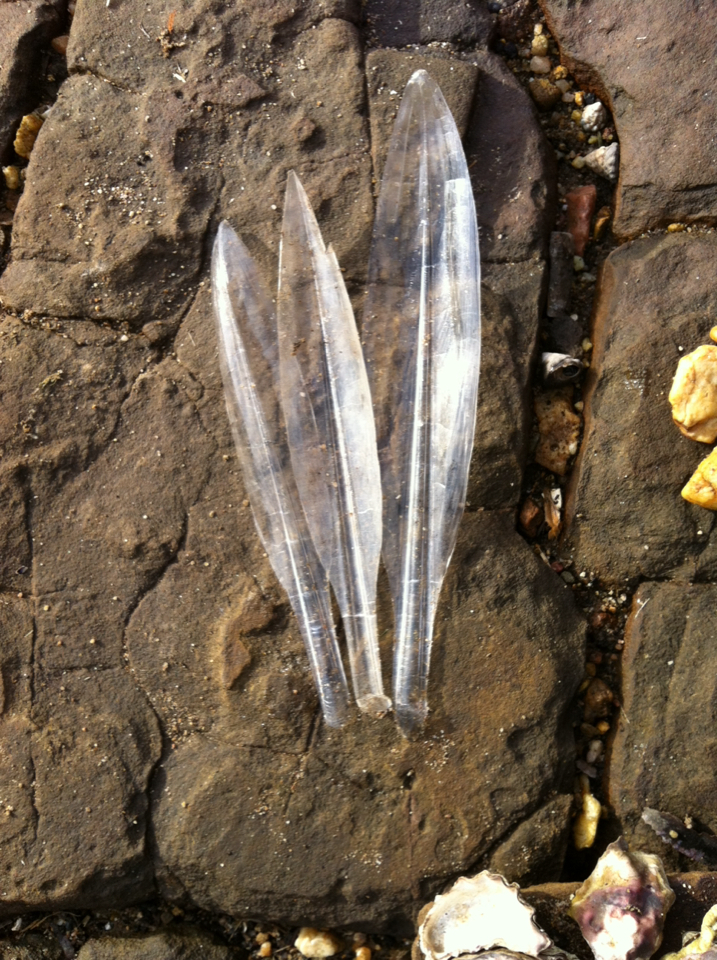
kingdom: Animalia
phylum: Mollusca
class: Cephalopoda
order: Myopsida
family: Loliginidae
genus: Sepioteuthis
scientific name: Sepioteuthis australis
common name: Southern reef squid
